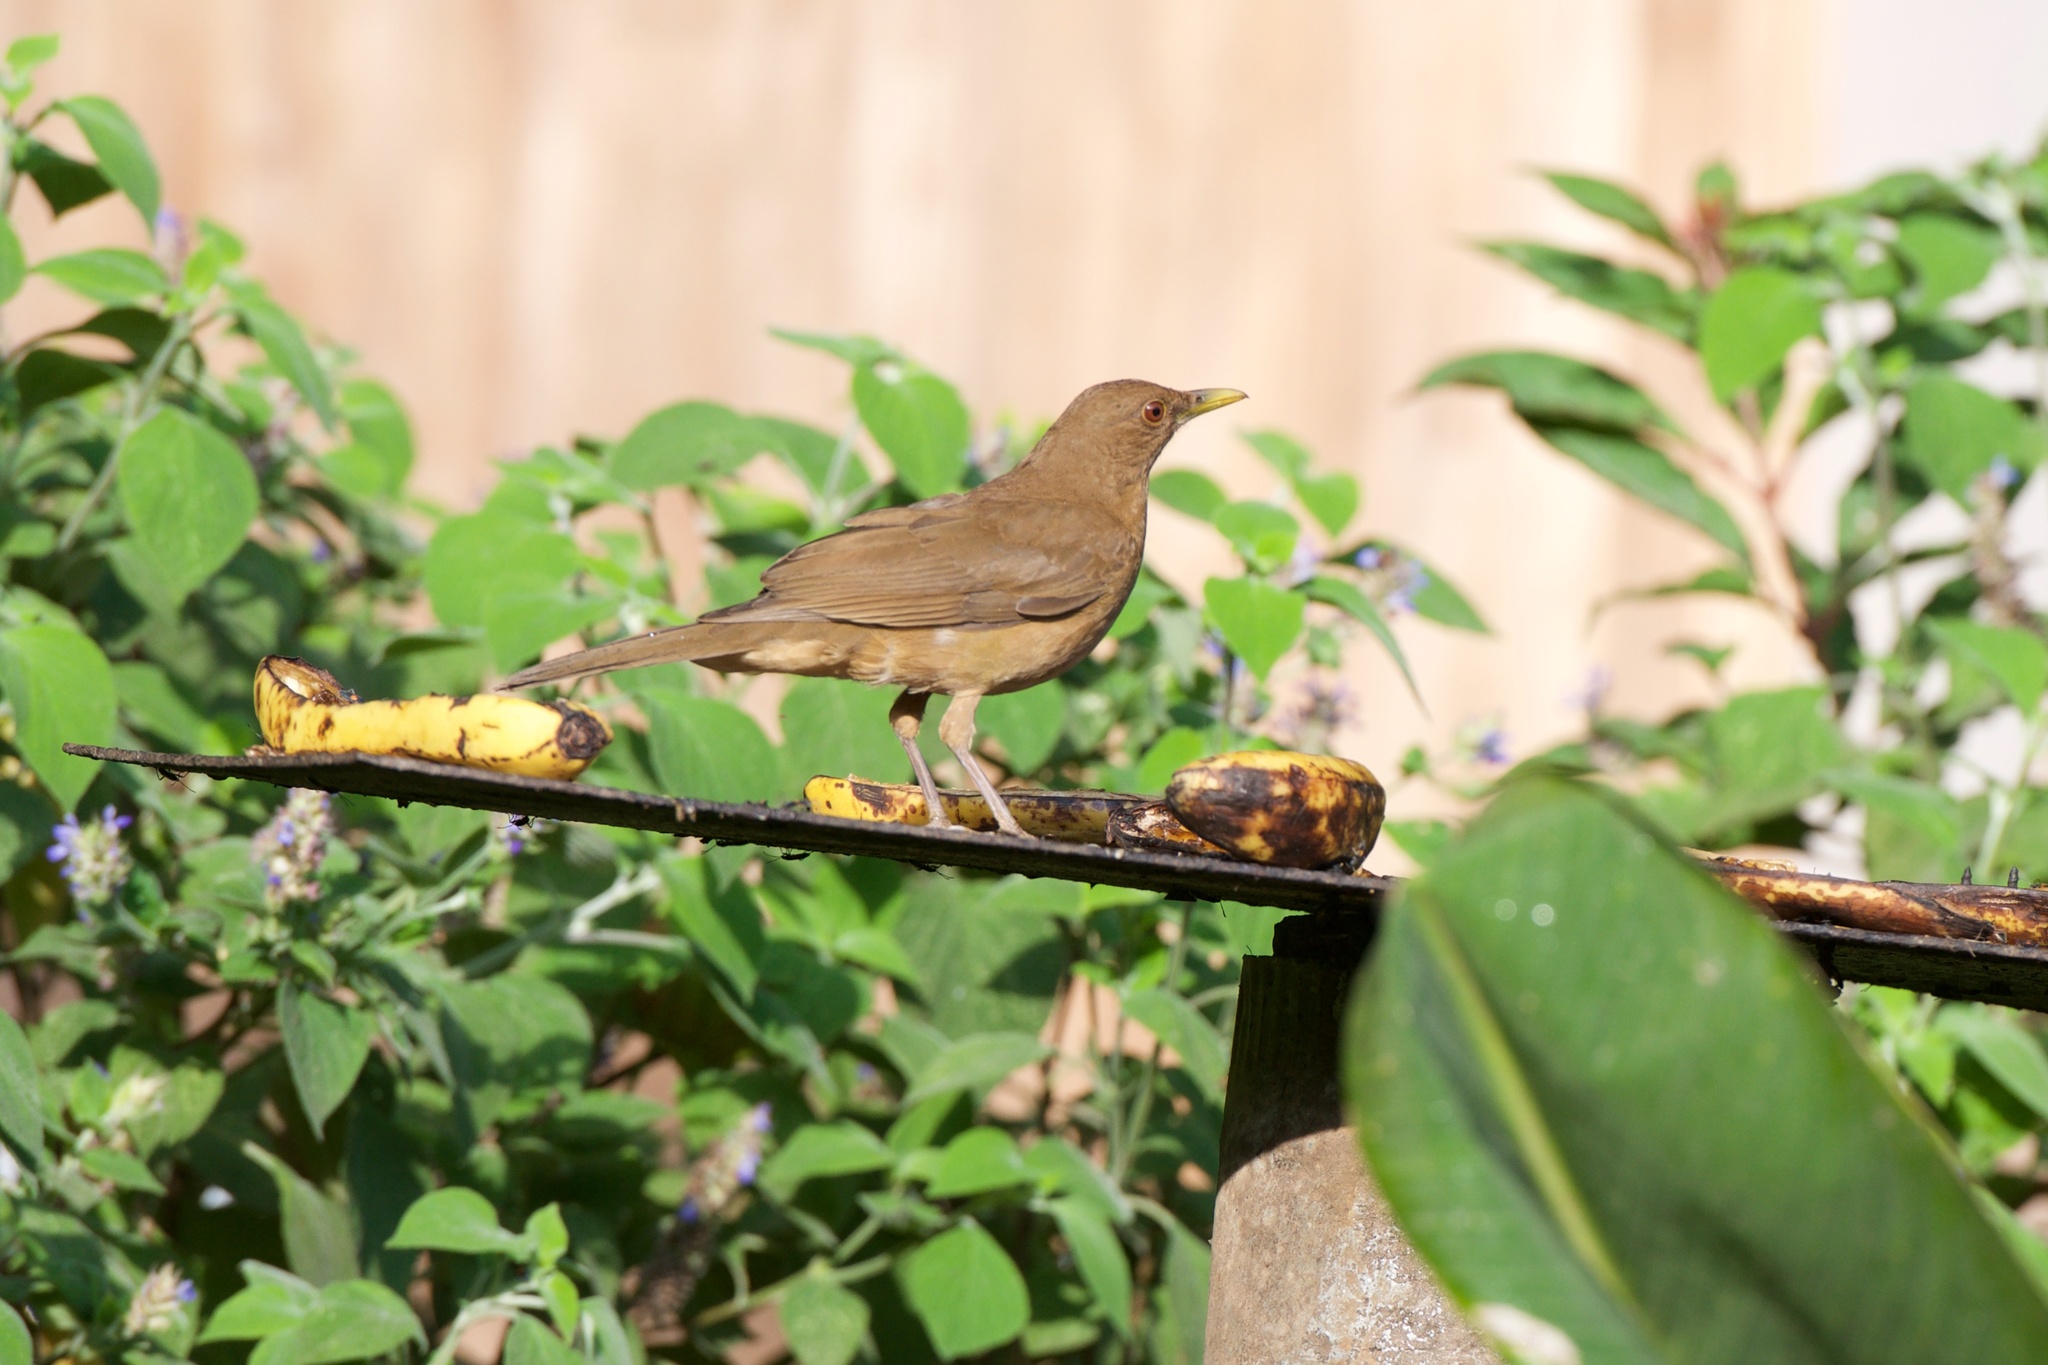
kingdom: Animalia
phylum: Chordata
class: Aves
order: Passeriformes
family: Turdidae
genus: Turdus
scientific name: Turdus grayi
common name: Clay-colored thrush
